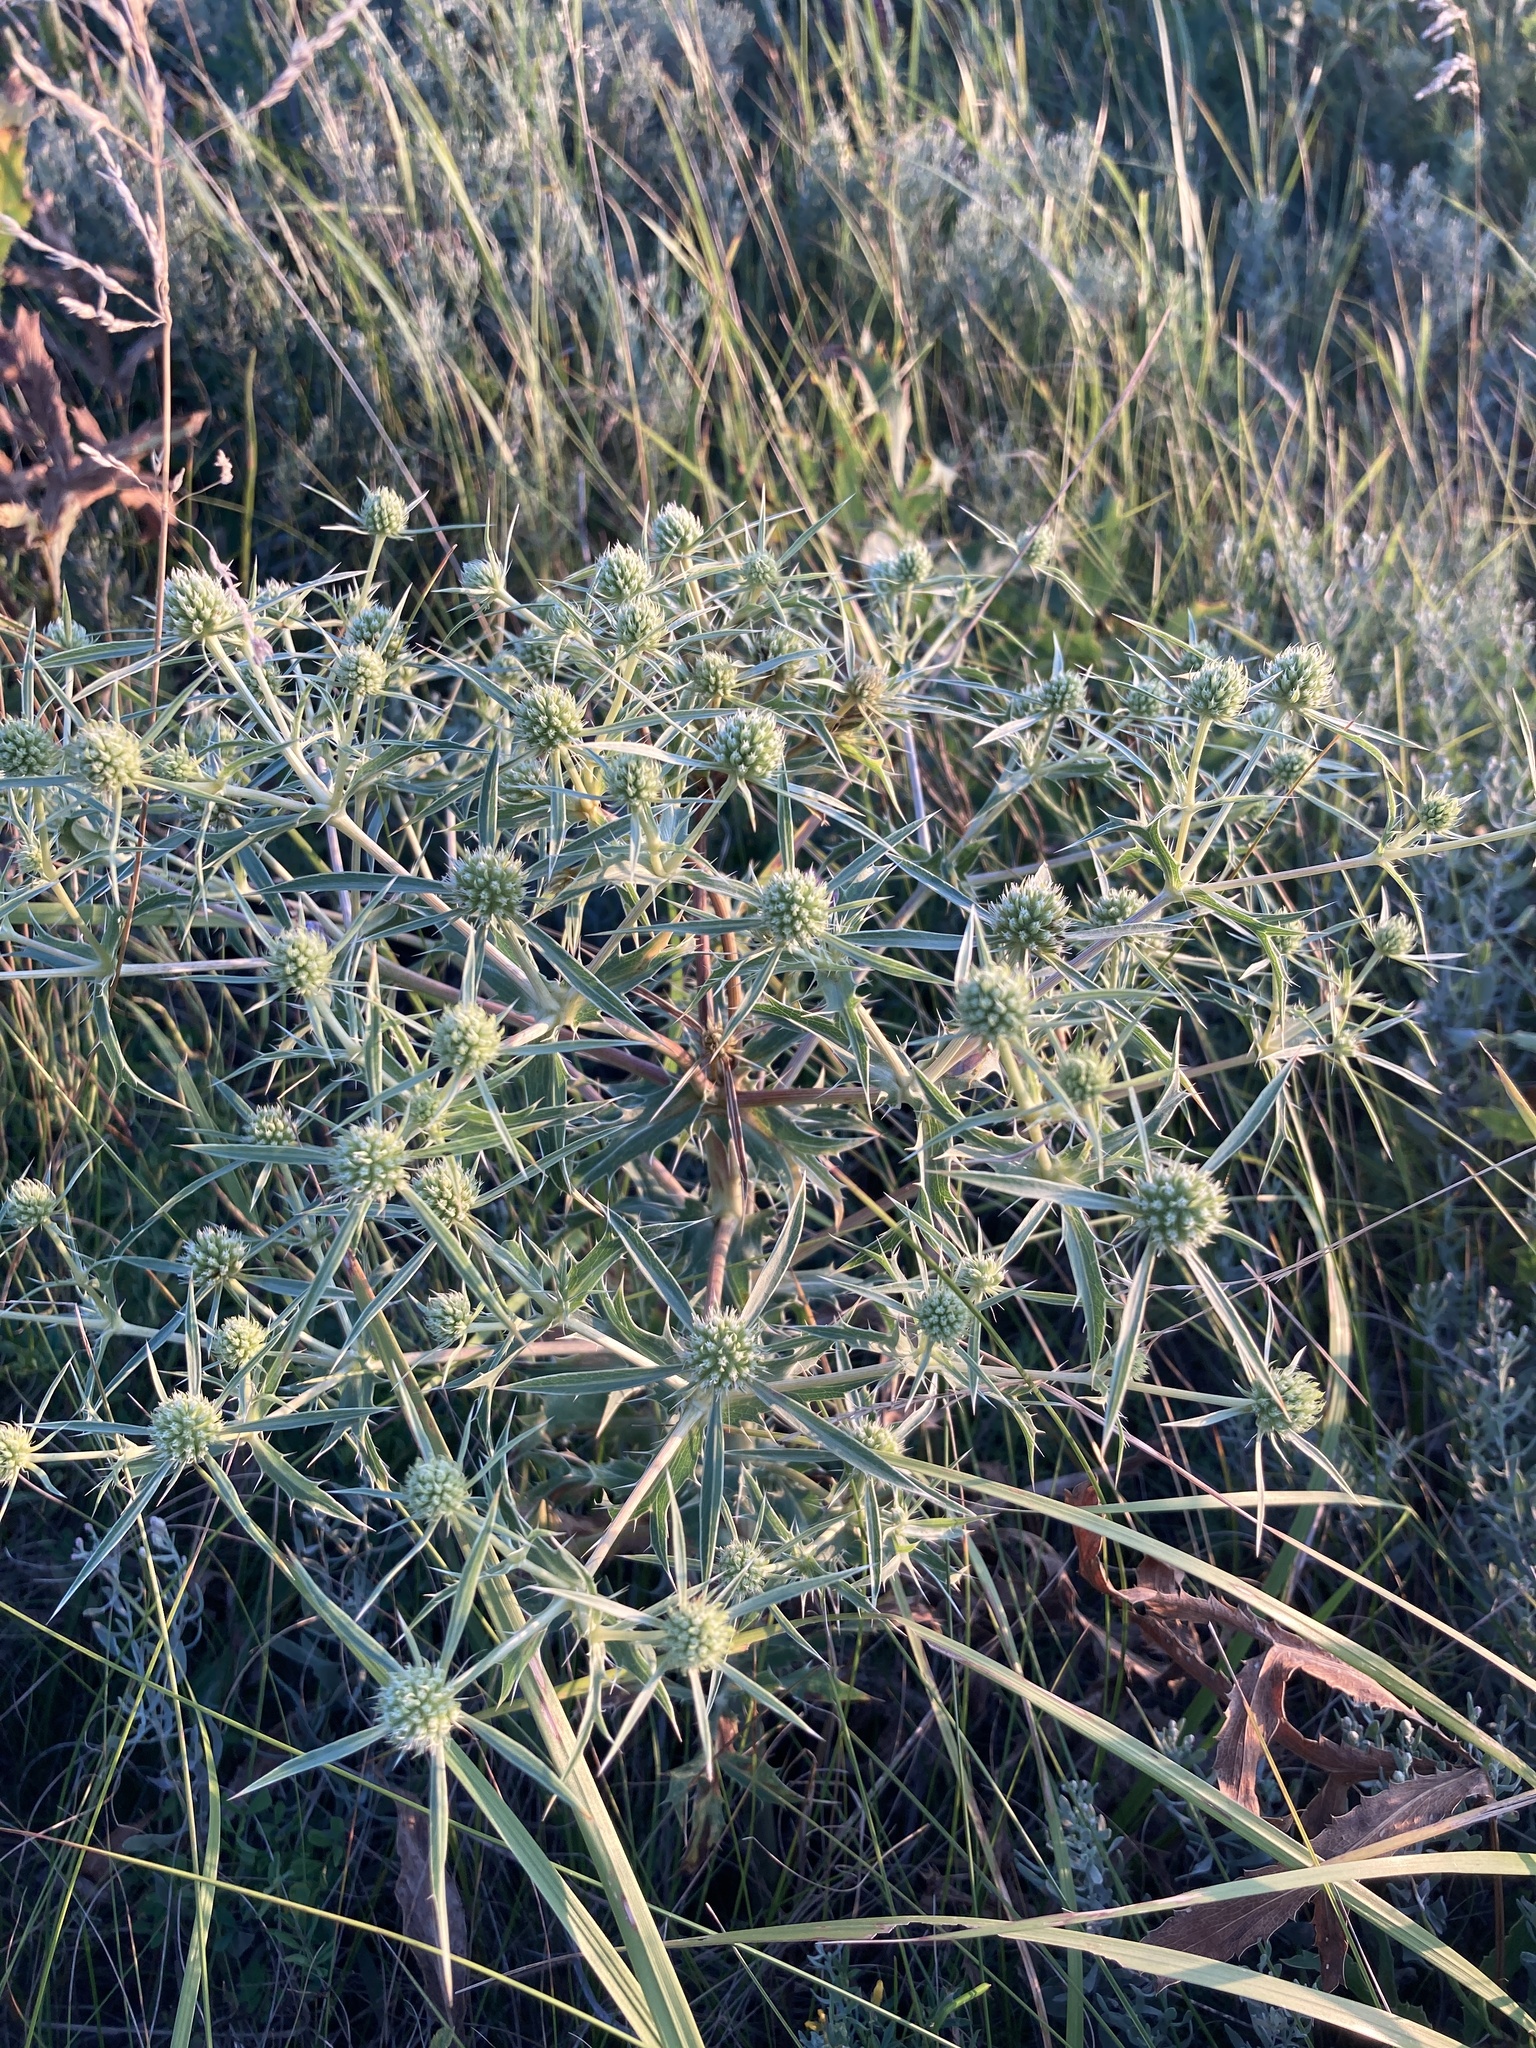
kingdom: Plantae
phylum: Tracheophyta
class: Magnoliopsida
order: Apiales
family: Apiaceae
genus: Eryngium
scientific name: Eryngium planum
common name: Blue eryngo
